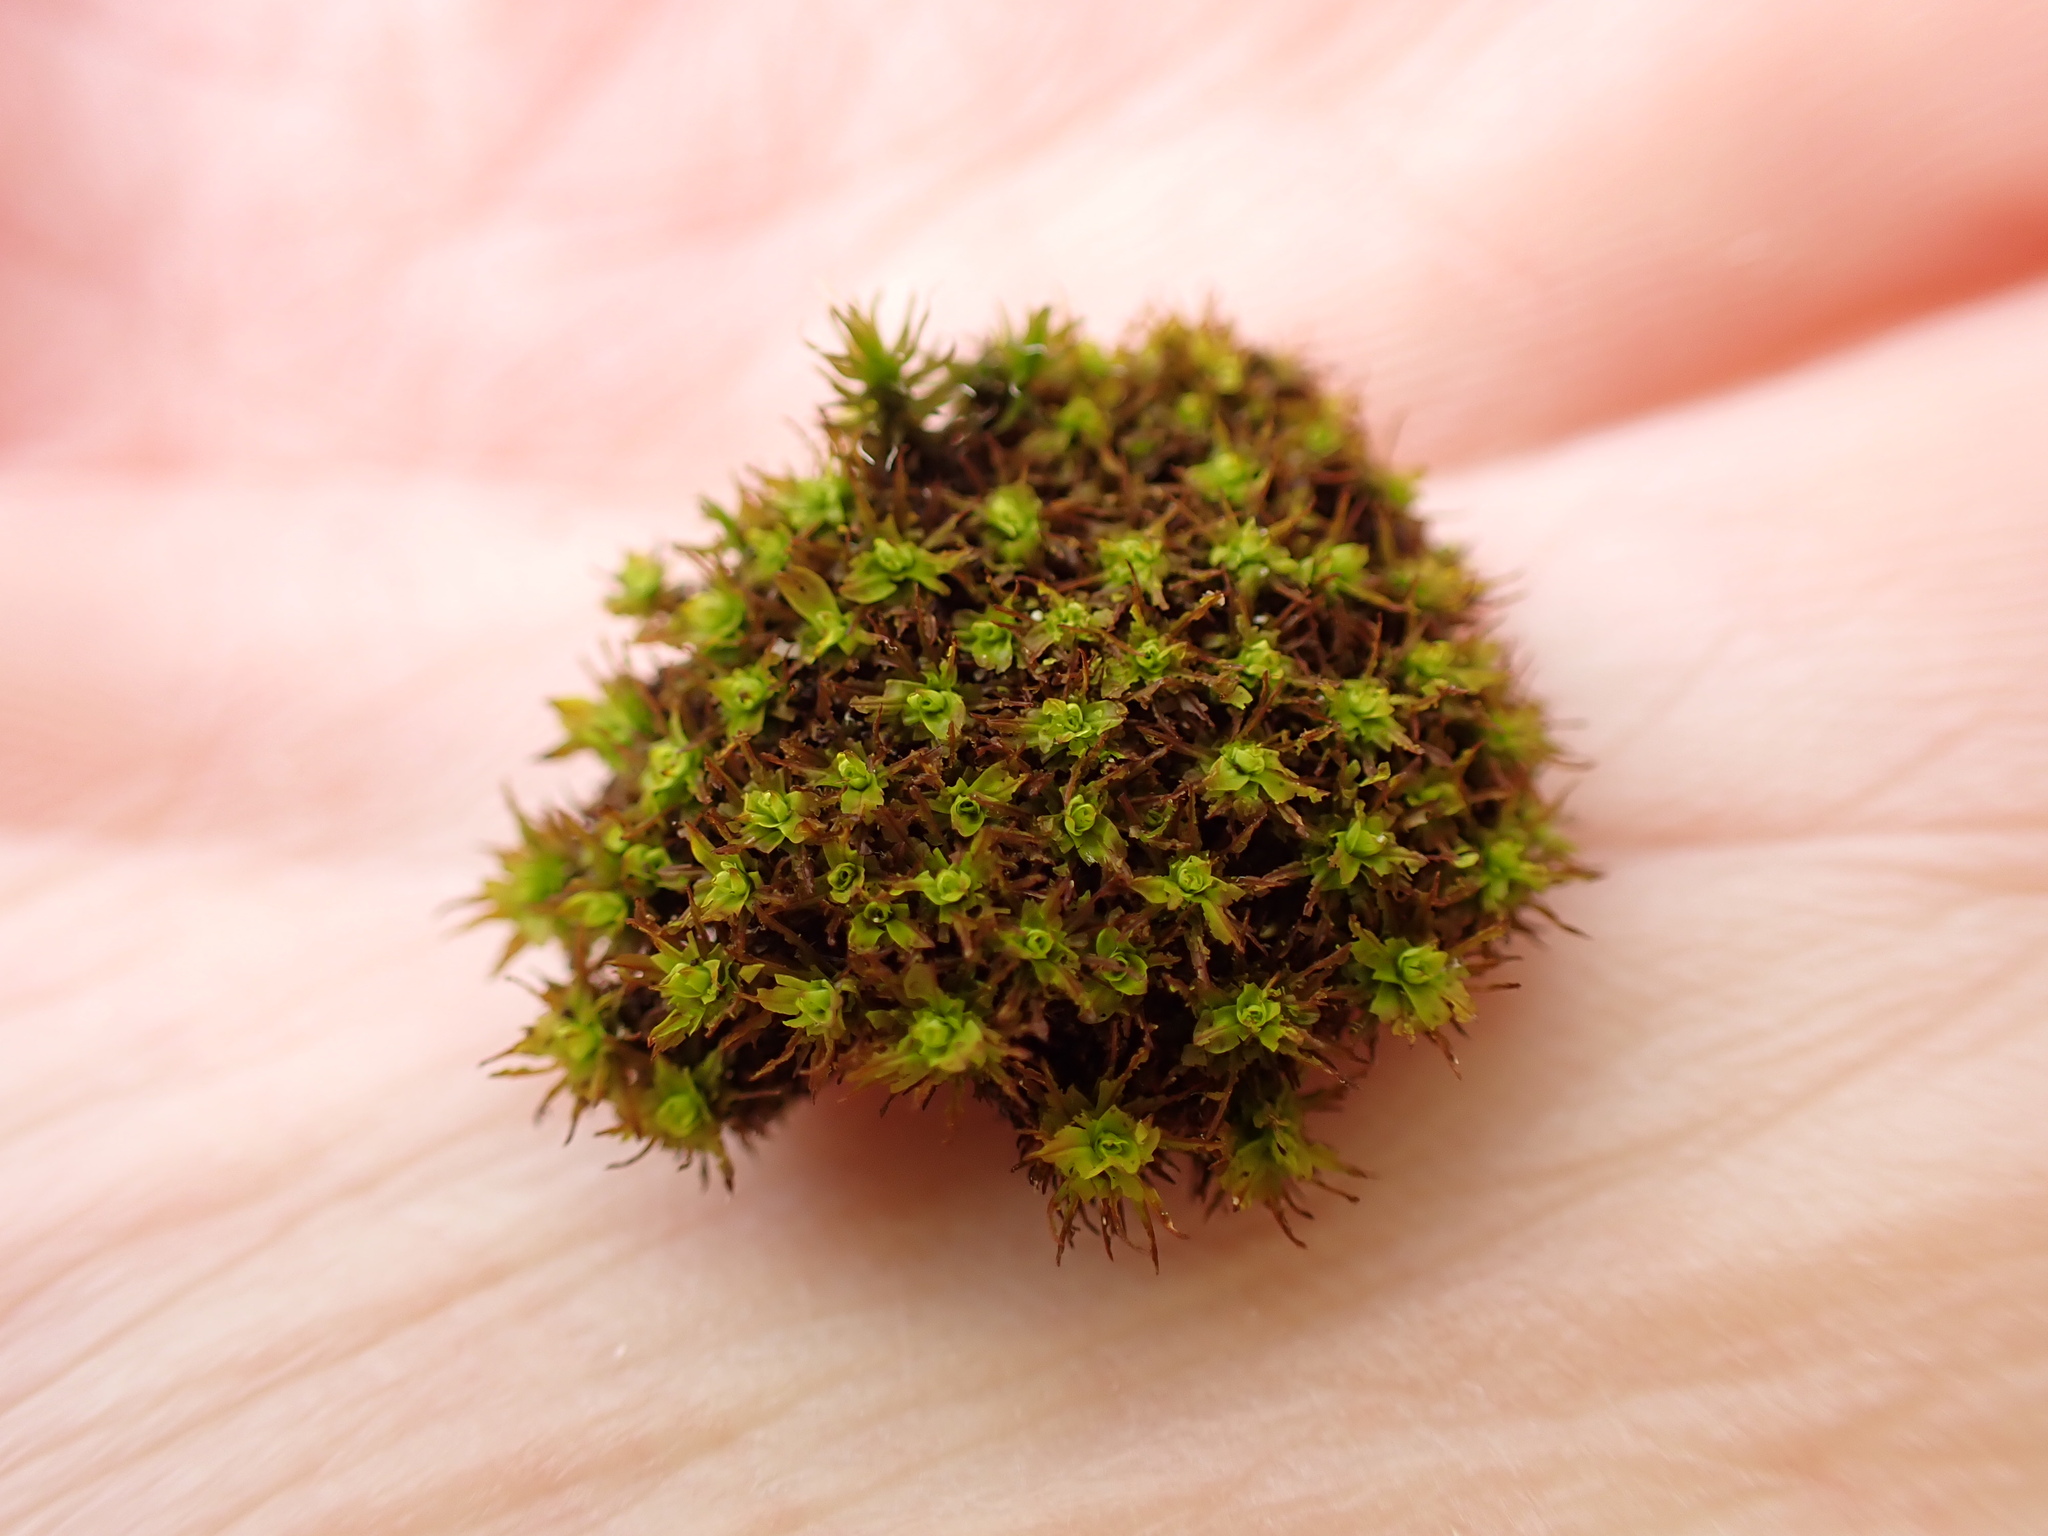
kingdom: Plantae
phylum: Bryophyta
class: Bryopsida
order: Pottiales
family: Pottiaceae
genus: Syntrichia
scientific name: Syntrichia fragilis
